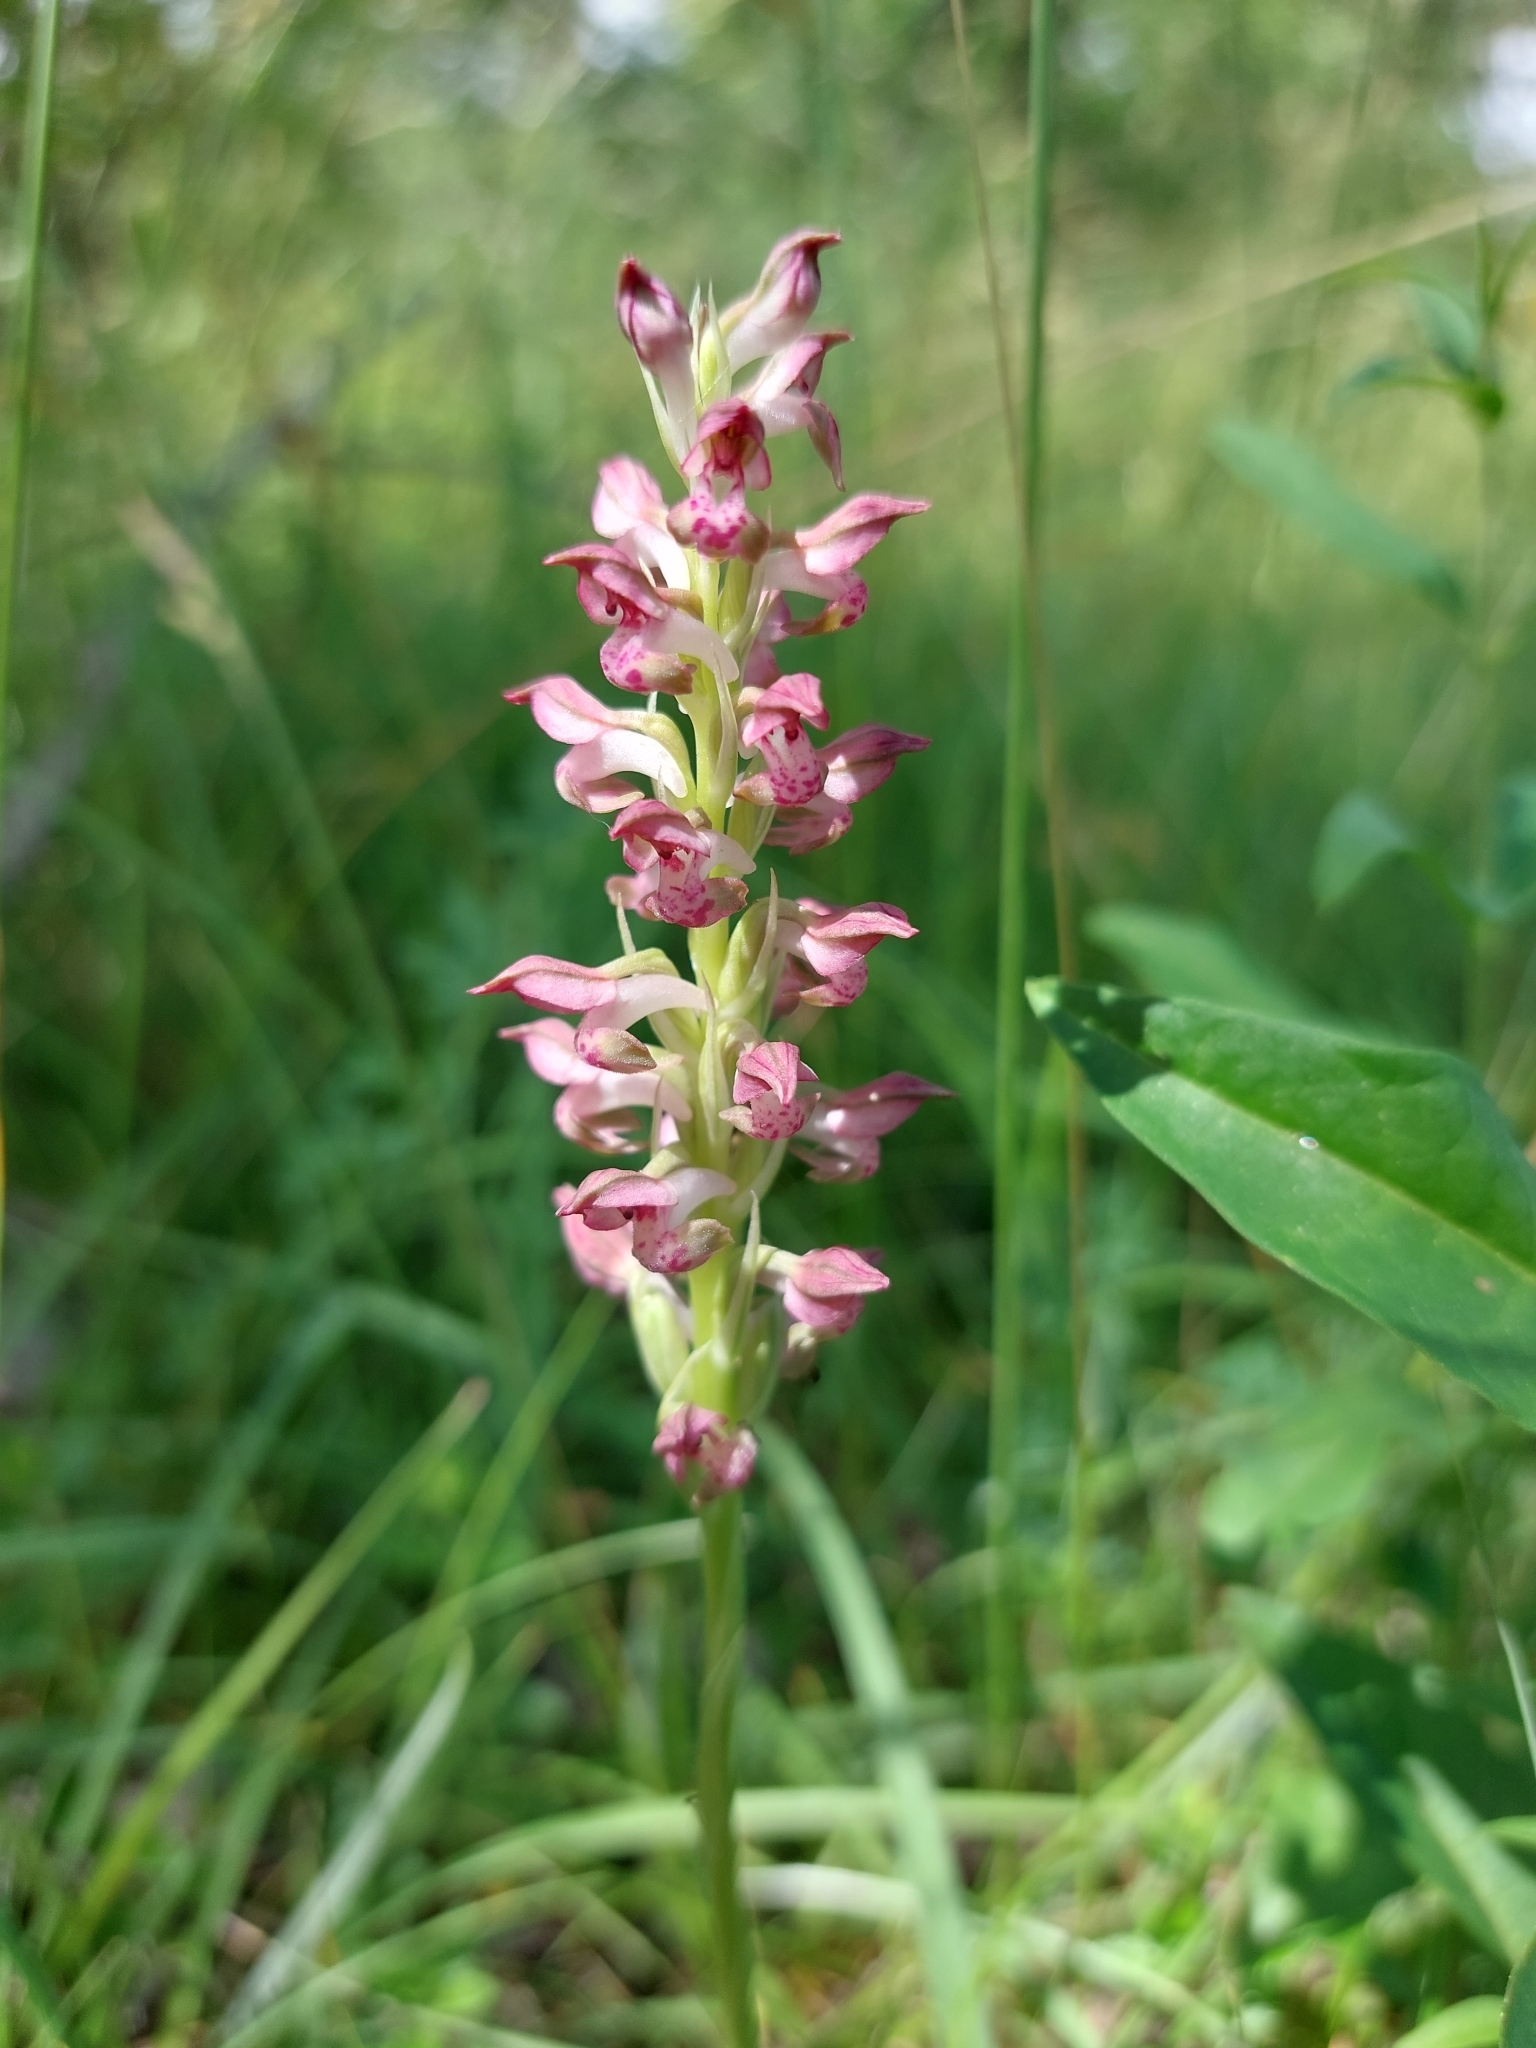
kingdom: Plantae
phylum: Tracheophyta
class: Liliopsida
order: Asparagales
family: Orchidaceae
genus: Anacamptis
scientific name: Anacamptis coriophora
